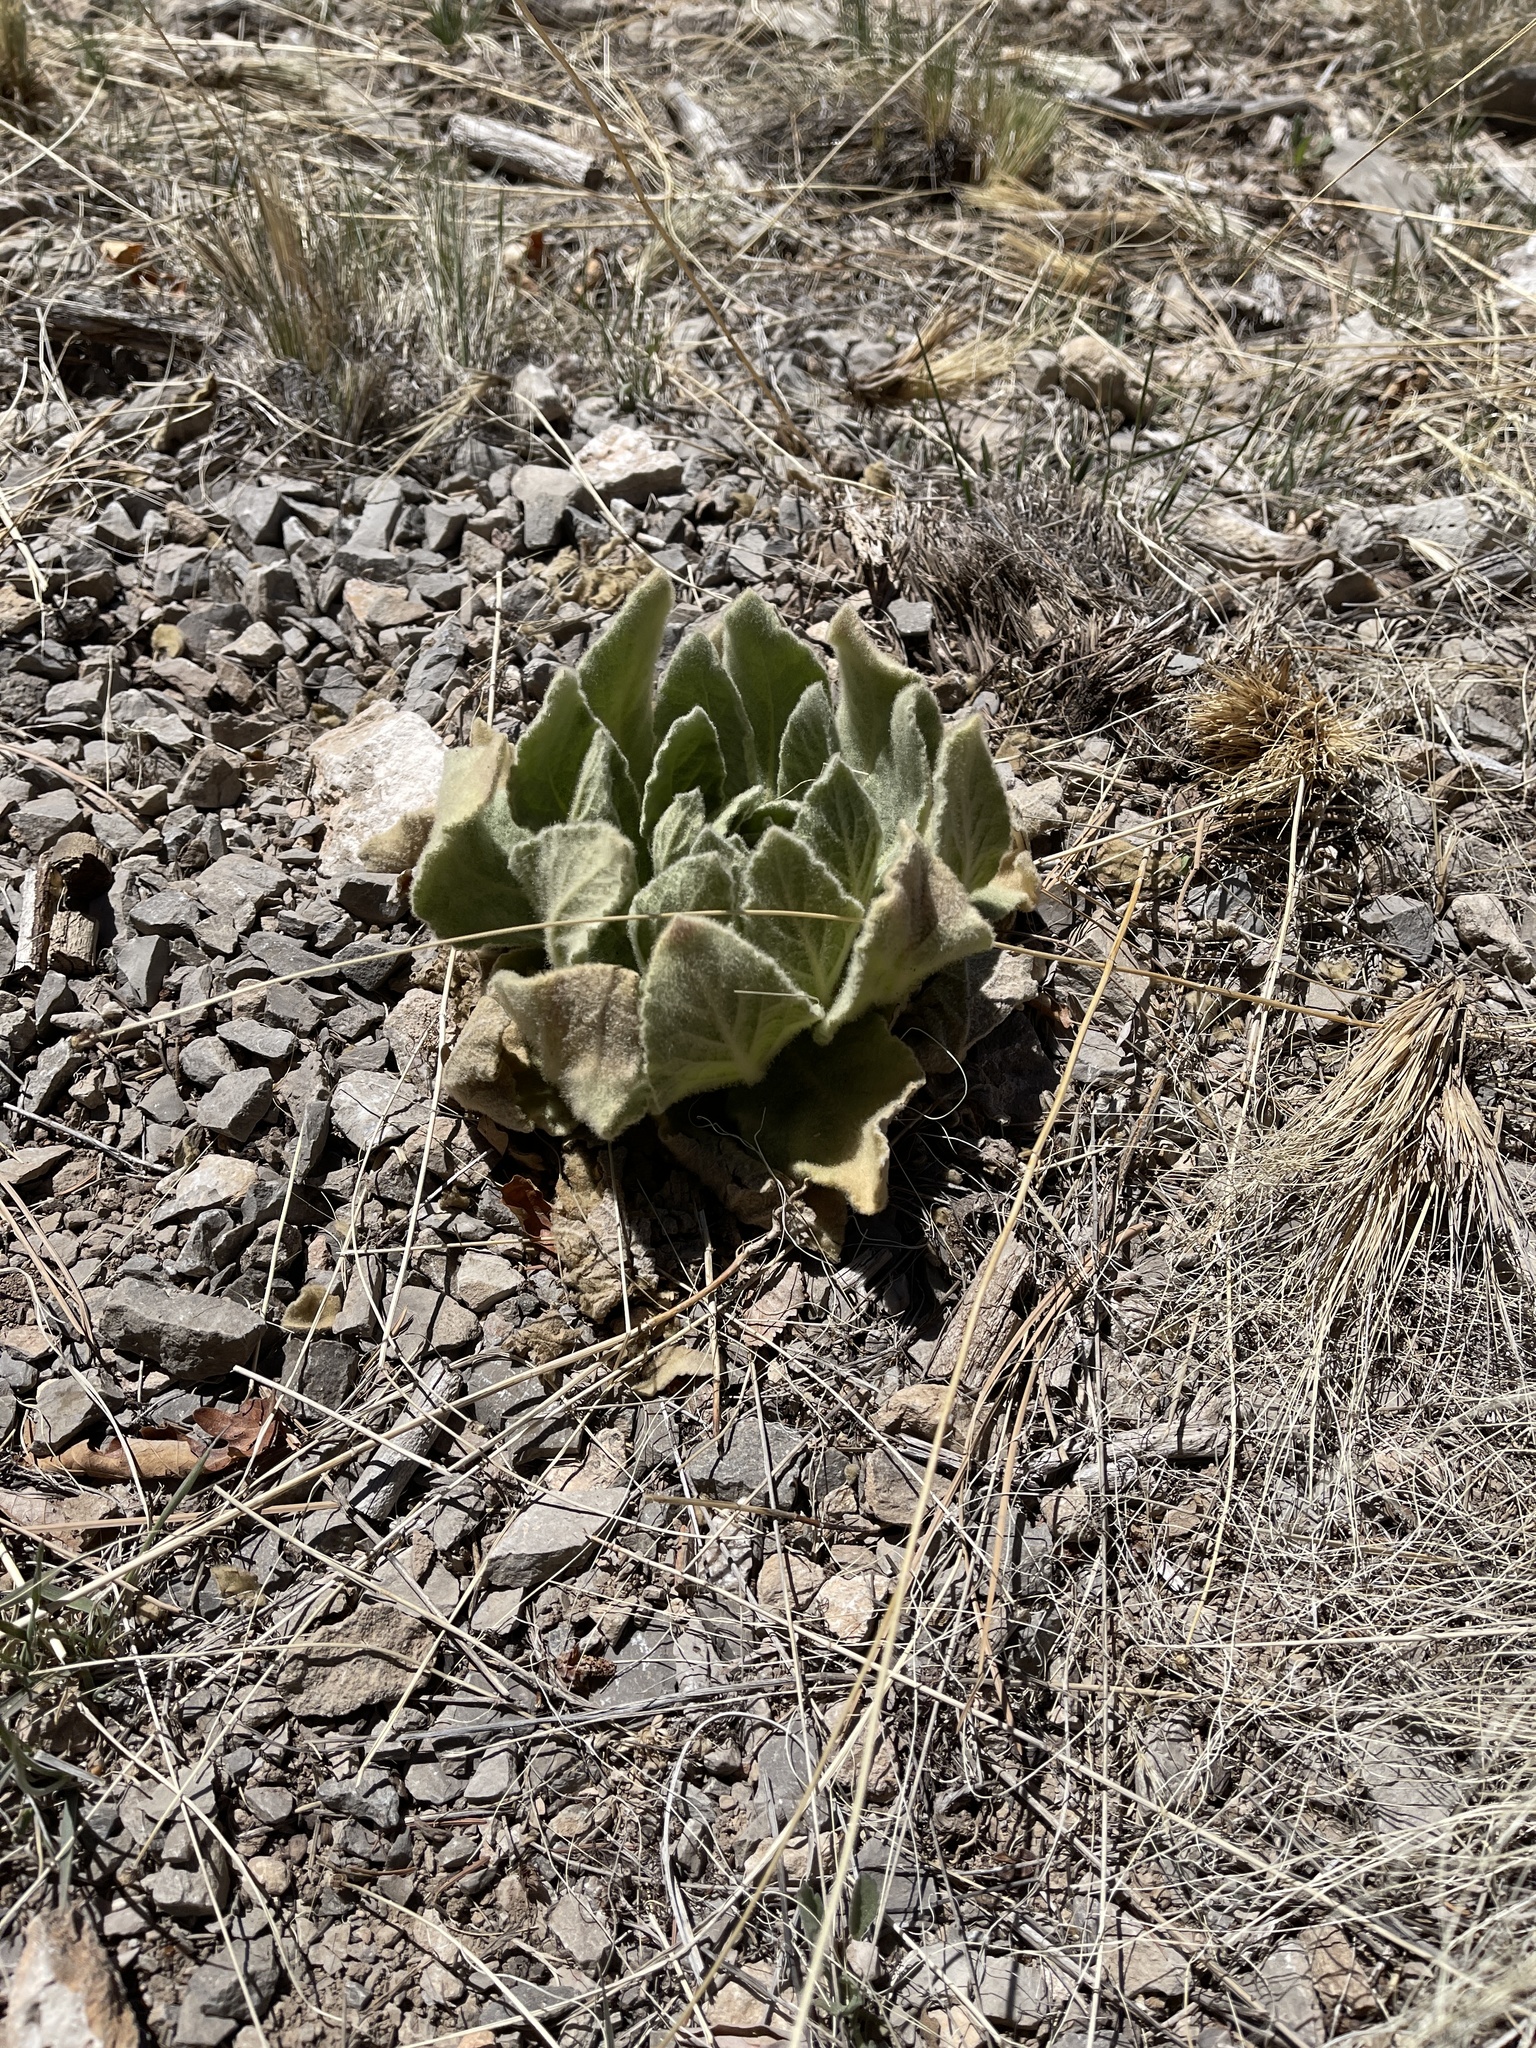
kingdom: Plantae
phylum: Tracheophyta
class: Magnoliopsida
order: Lamiales
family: Scrophulariaceae
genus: Verbascum
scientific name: Verbascum thapsus
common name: Common mullein
